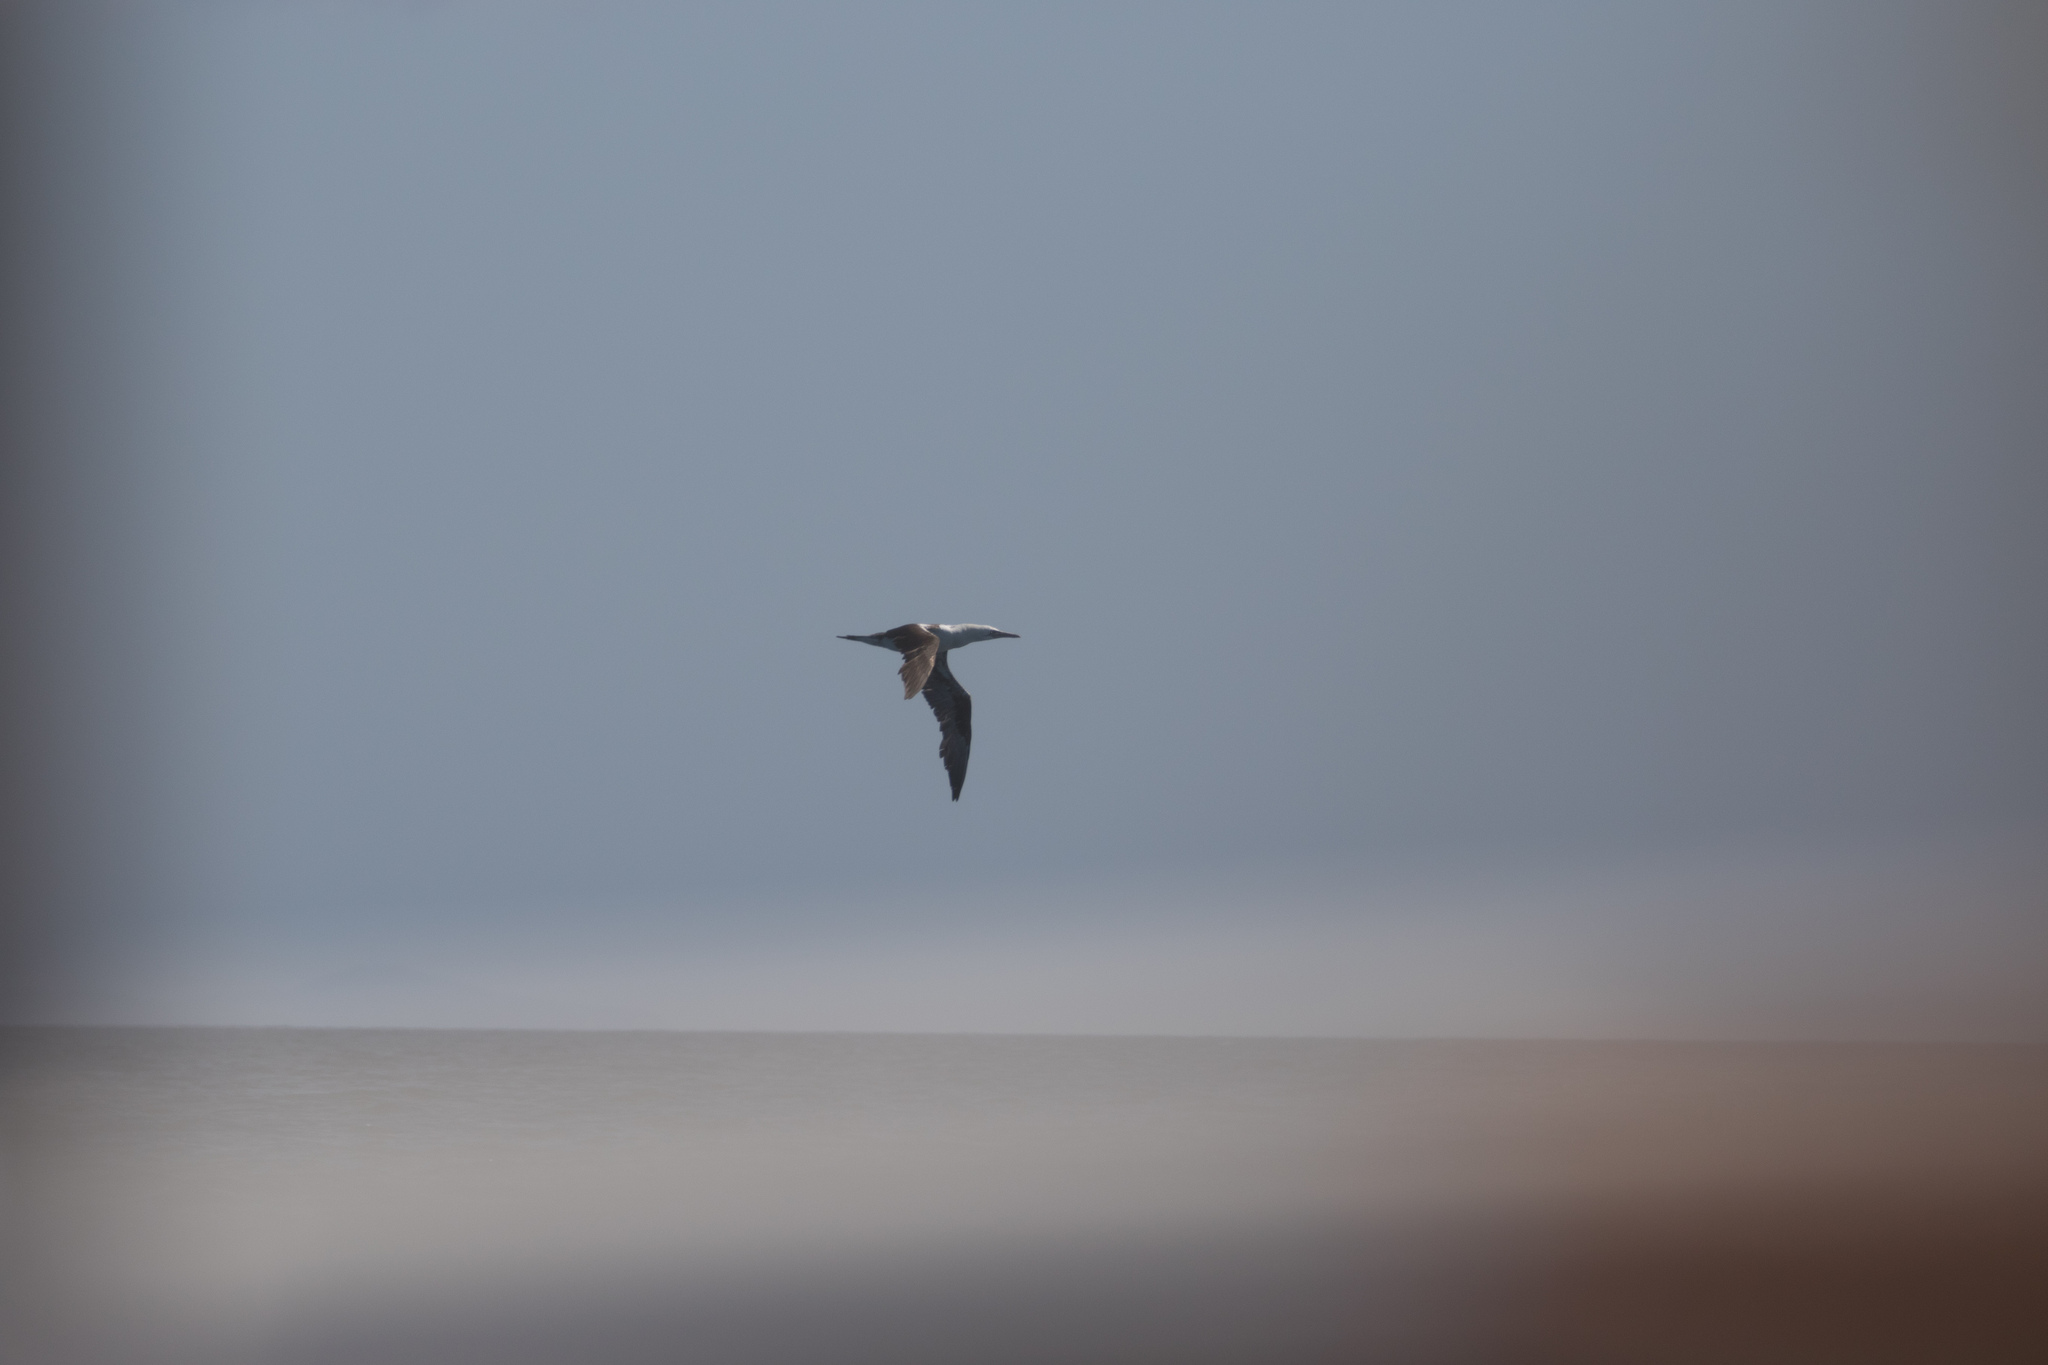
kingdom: Animalia
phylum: Chordata
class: Aves
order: Suliformes
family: Sulidae
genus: Morus
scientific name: Morus bassanus
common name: Northern gannet
